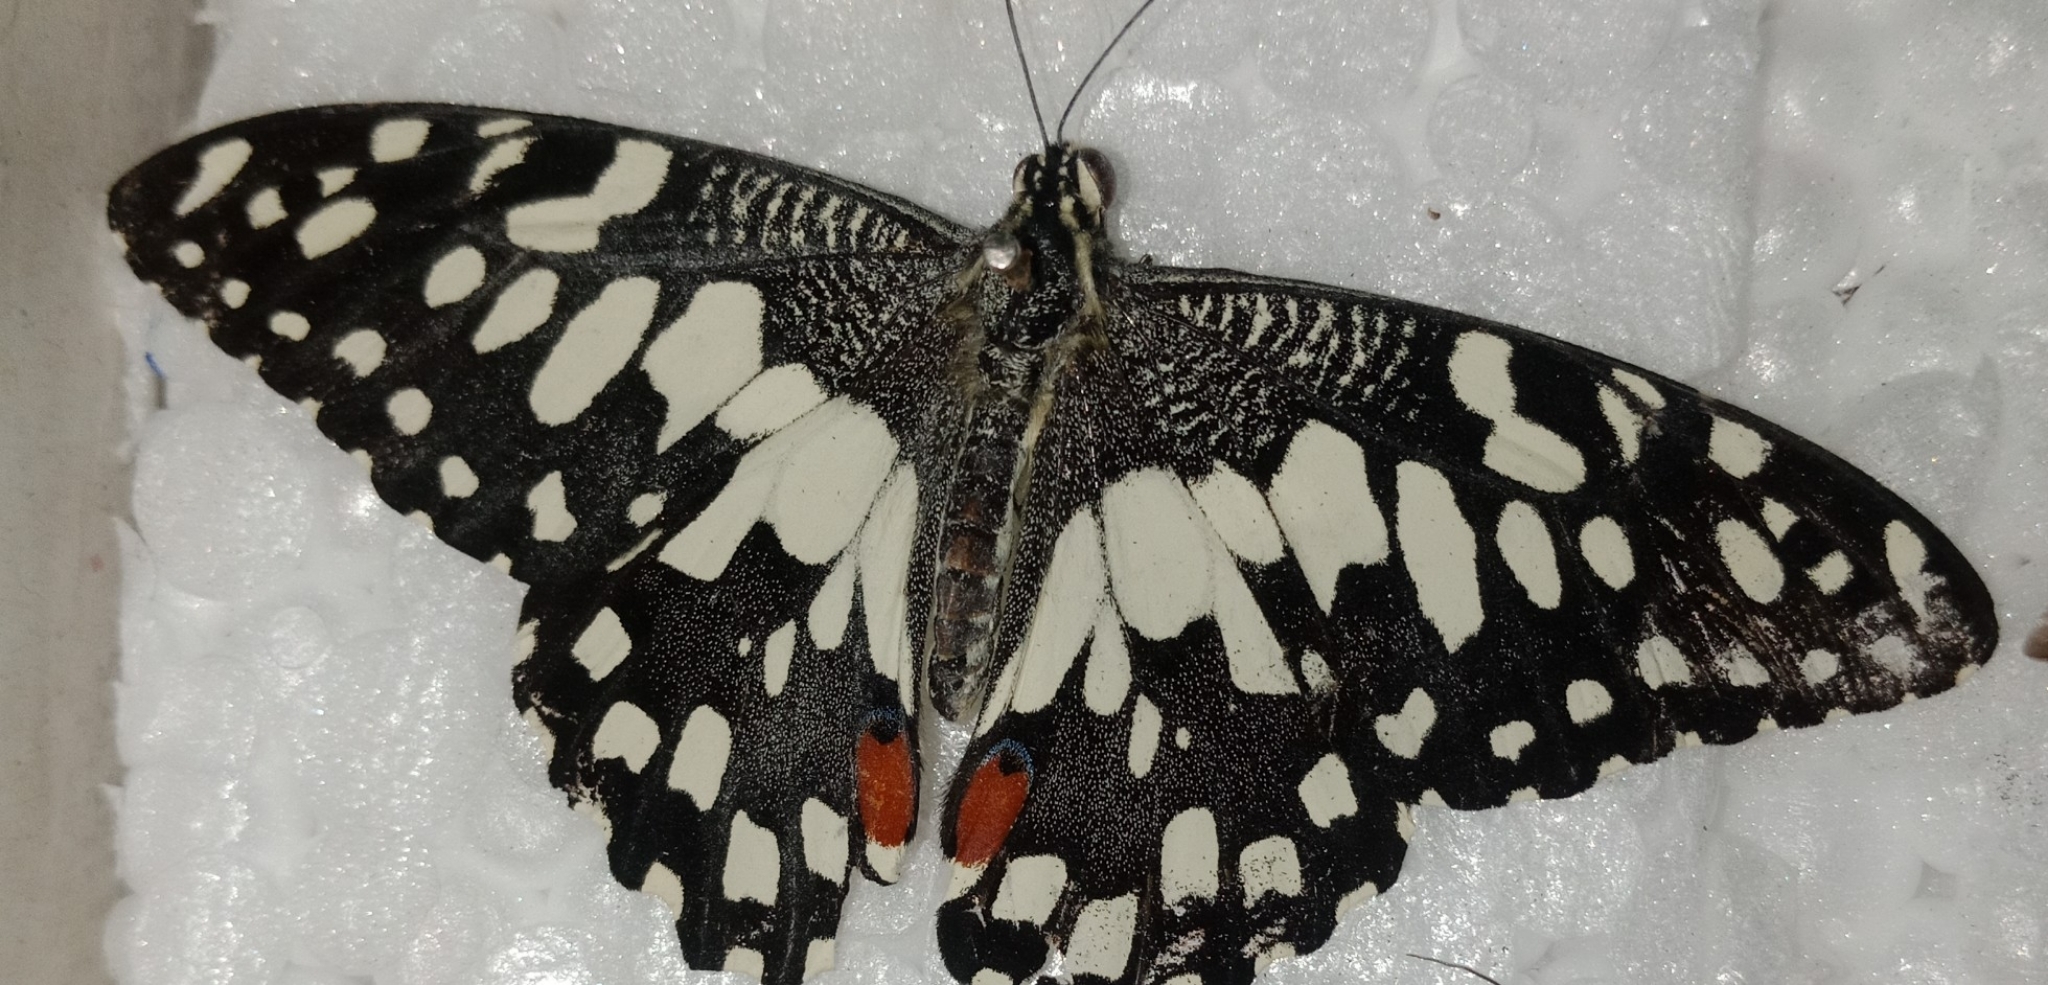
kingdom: Animalia
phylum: Arthropoda
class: Insecta
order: Lepidoptera
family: Papilionidae
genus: Papilio
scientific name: Papilio demoleus
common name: Lime butterfly
